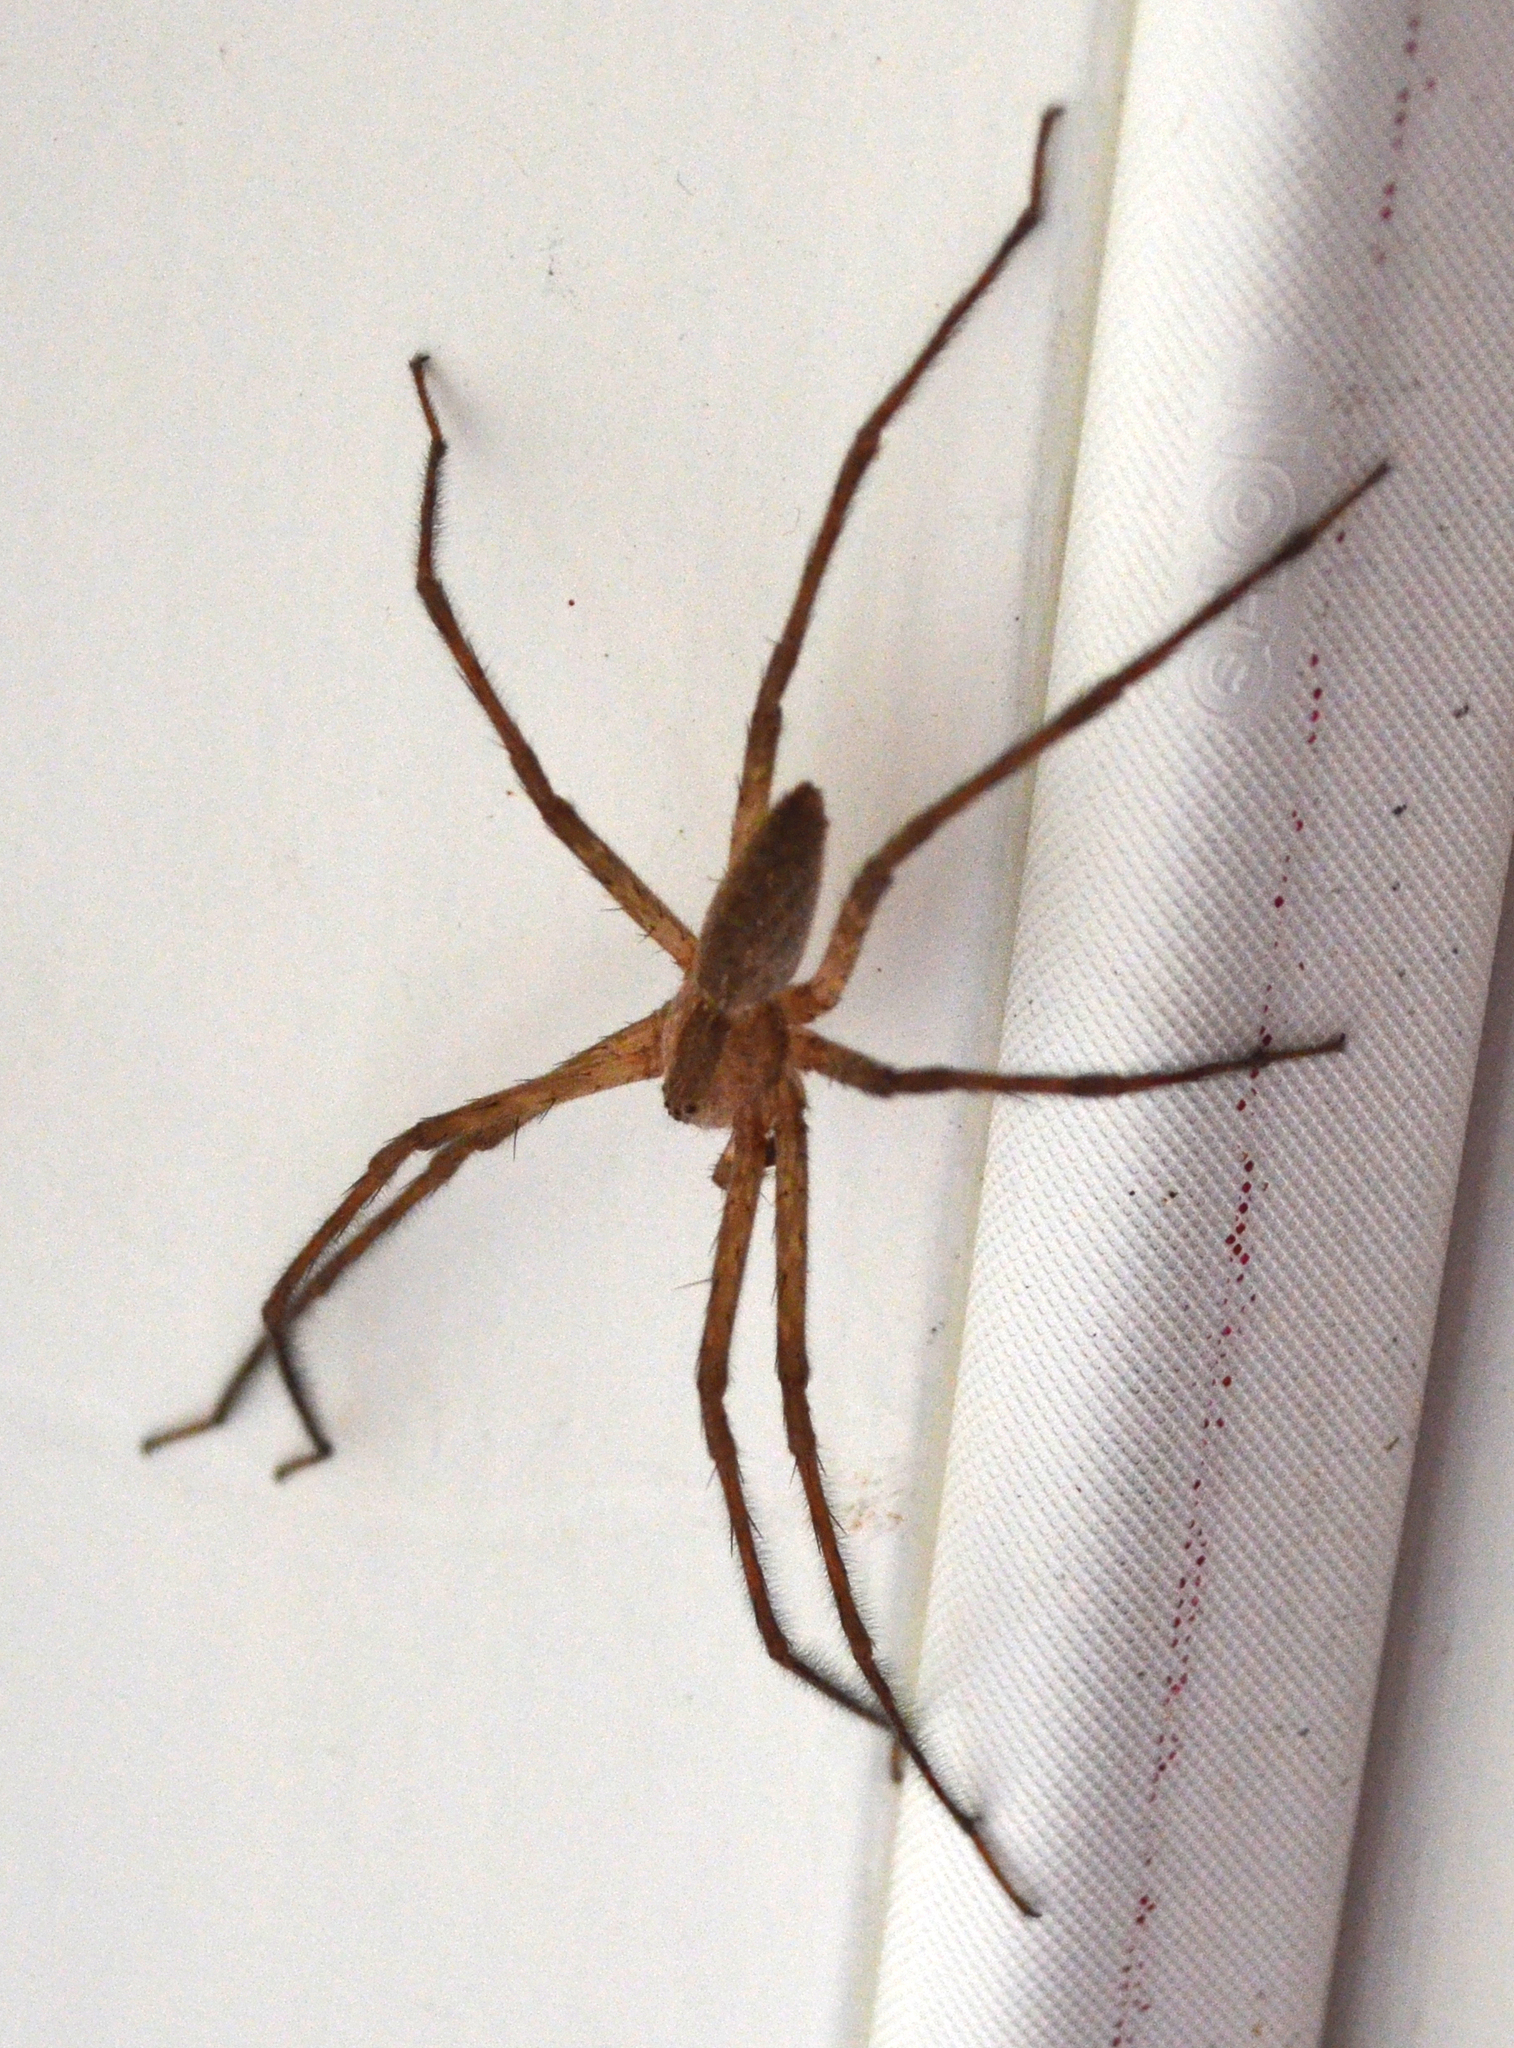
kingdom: Animalia
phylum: Arthropoda
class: Arachnida
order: Araneae
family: Pisauridae
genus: Pisaurina
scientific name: Pisaurina mira
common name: American nursery web spider
